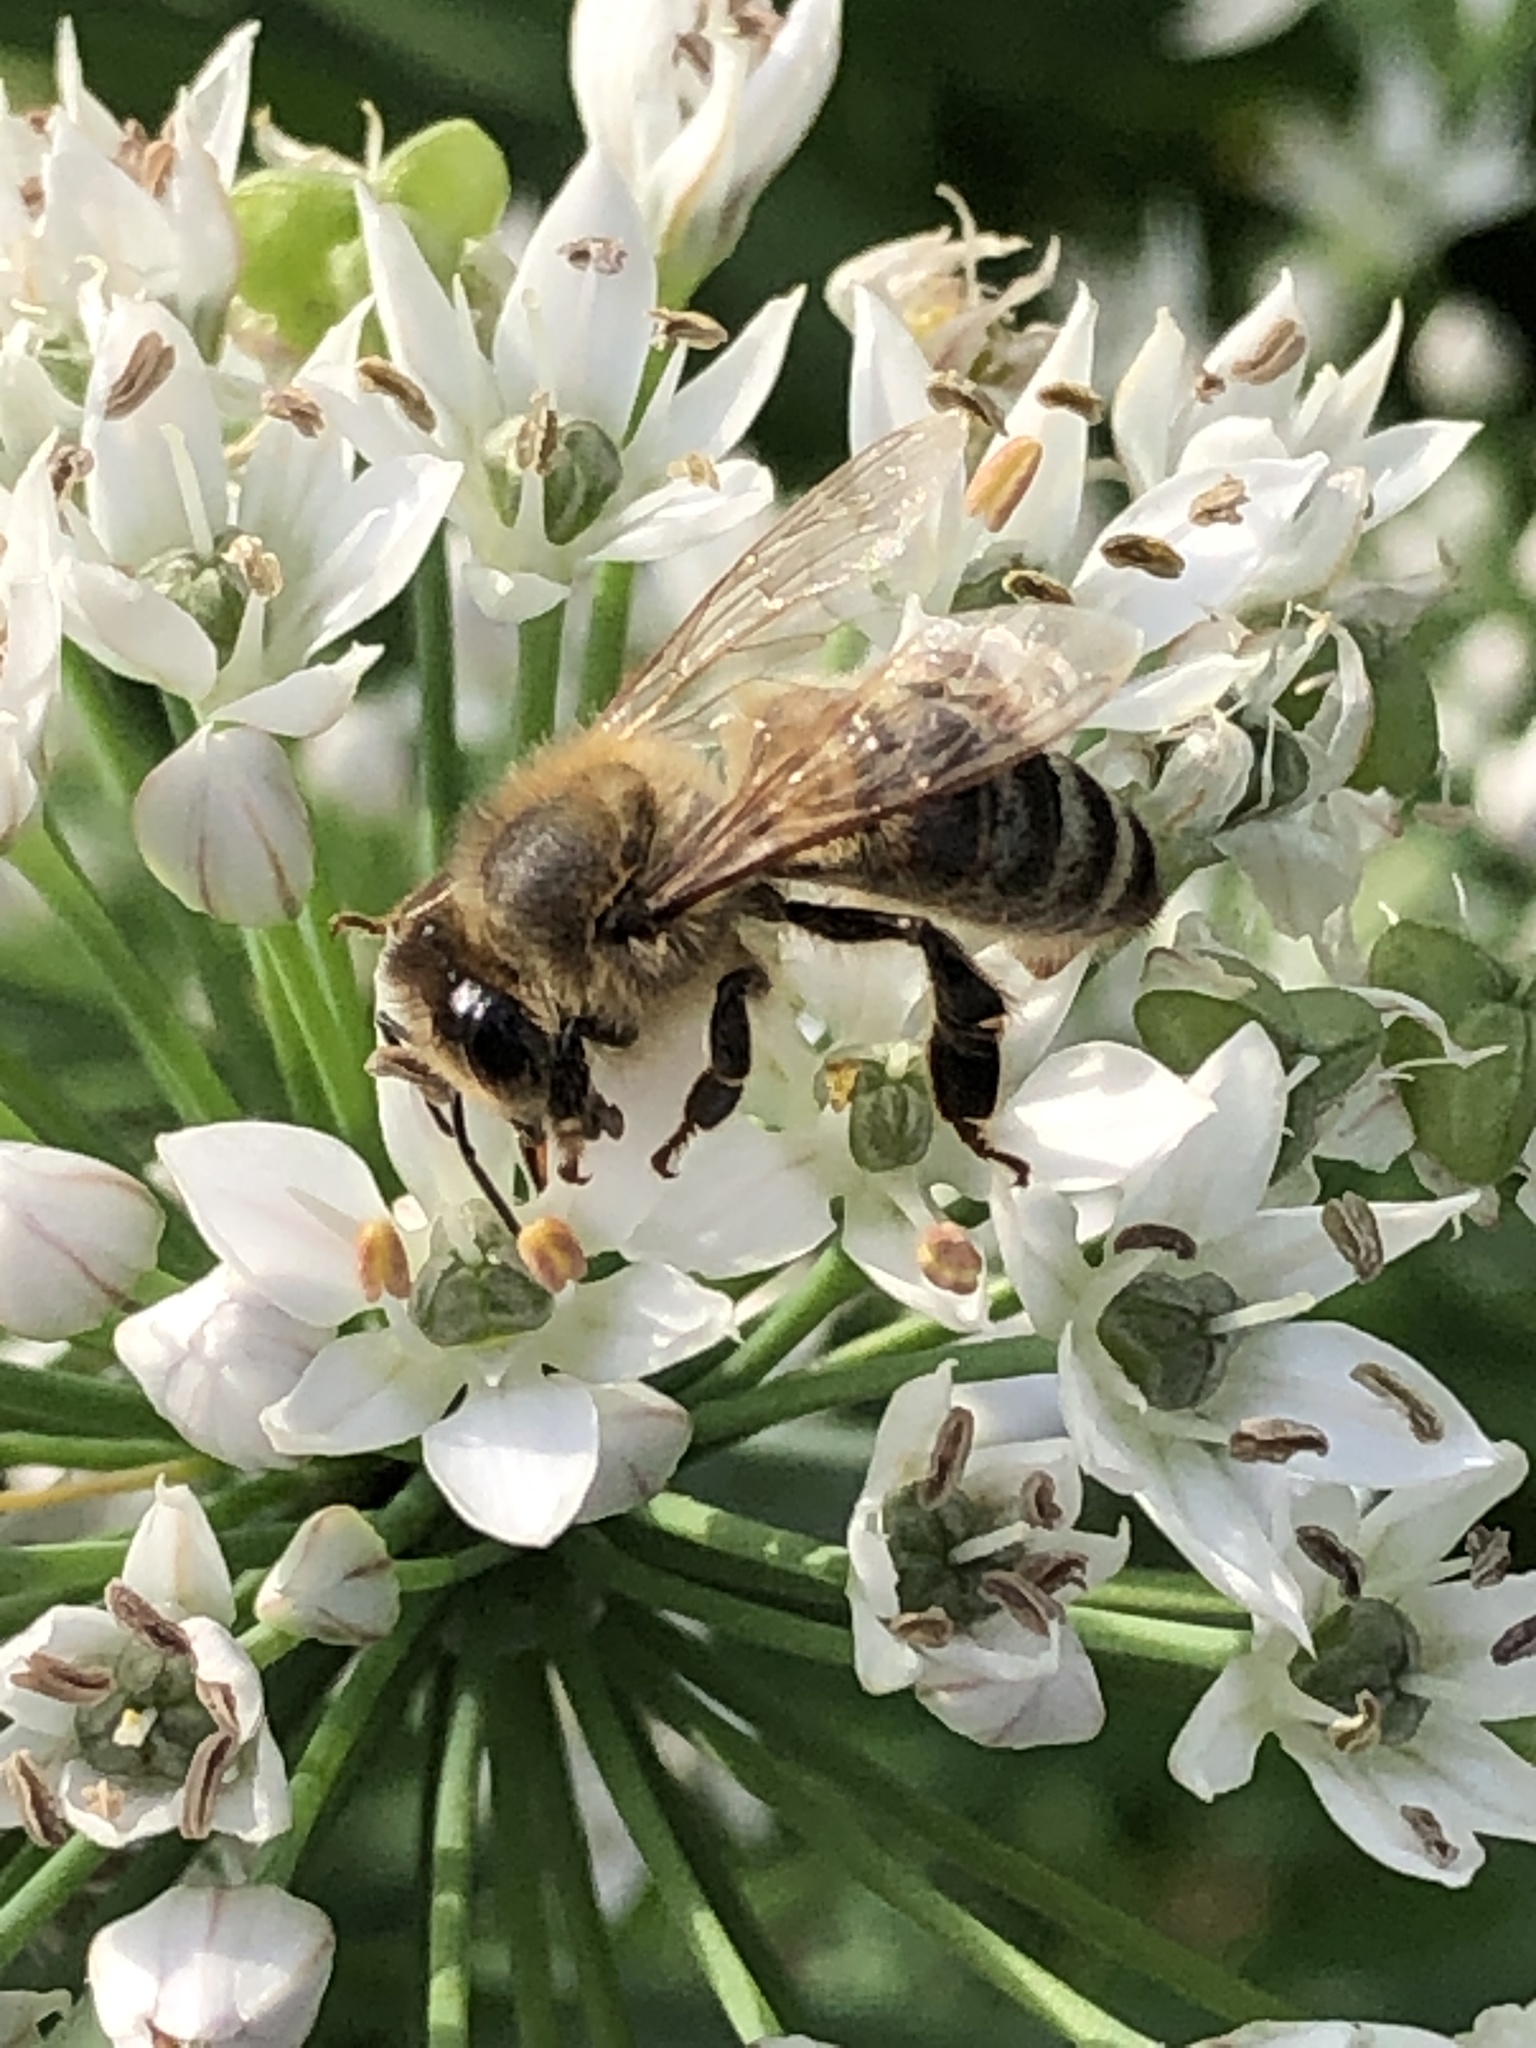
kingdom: Animalia
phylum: Arthropoda
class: Insecta
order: Hymenoptera
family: Apidae
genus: Apis
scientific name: Apis mellifera
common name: Honey bee
